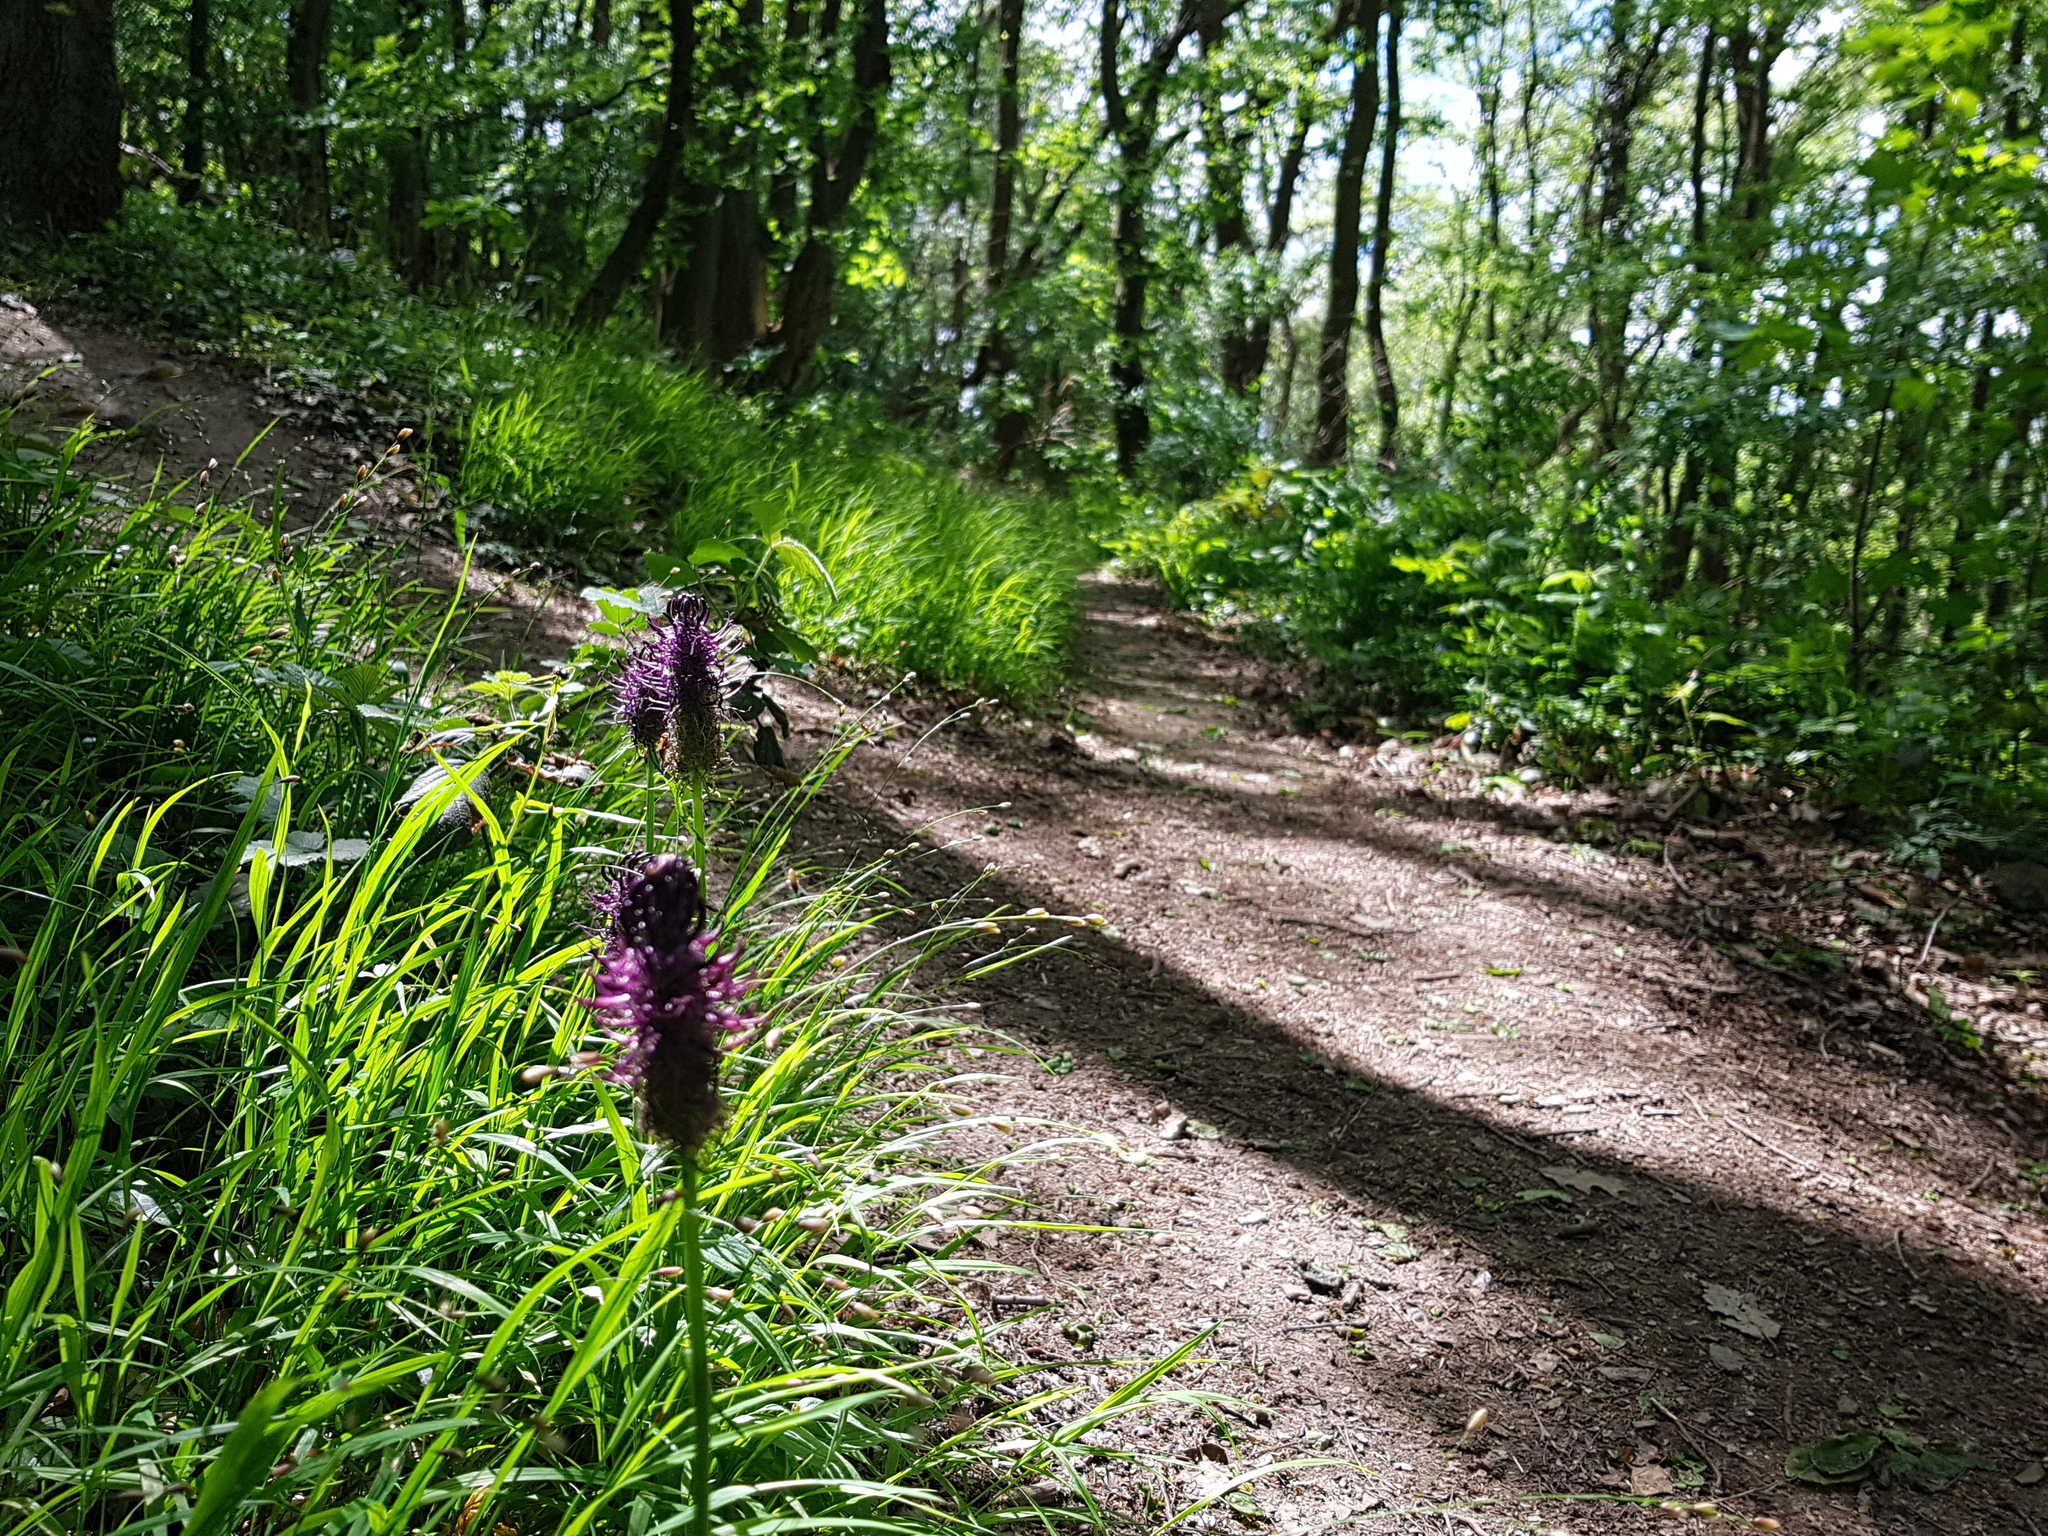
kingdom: Plantae
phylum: Tracheophyta
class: Magnoliopsida
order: Asterales
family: Campanulaceae
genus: Phyteuma
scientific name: Phyteuma nigrum
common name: Black rampion
